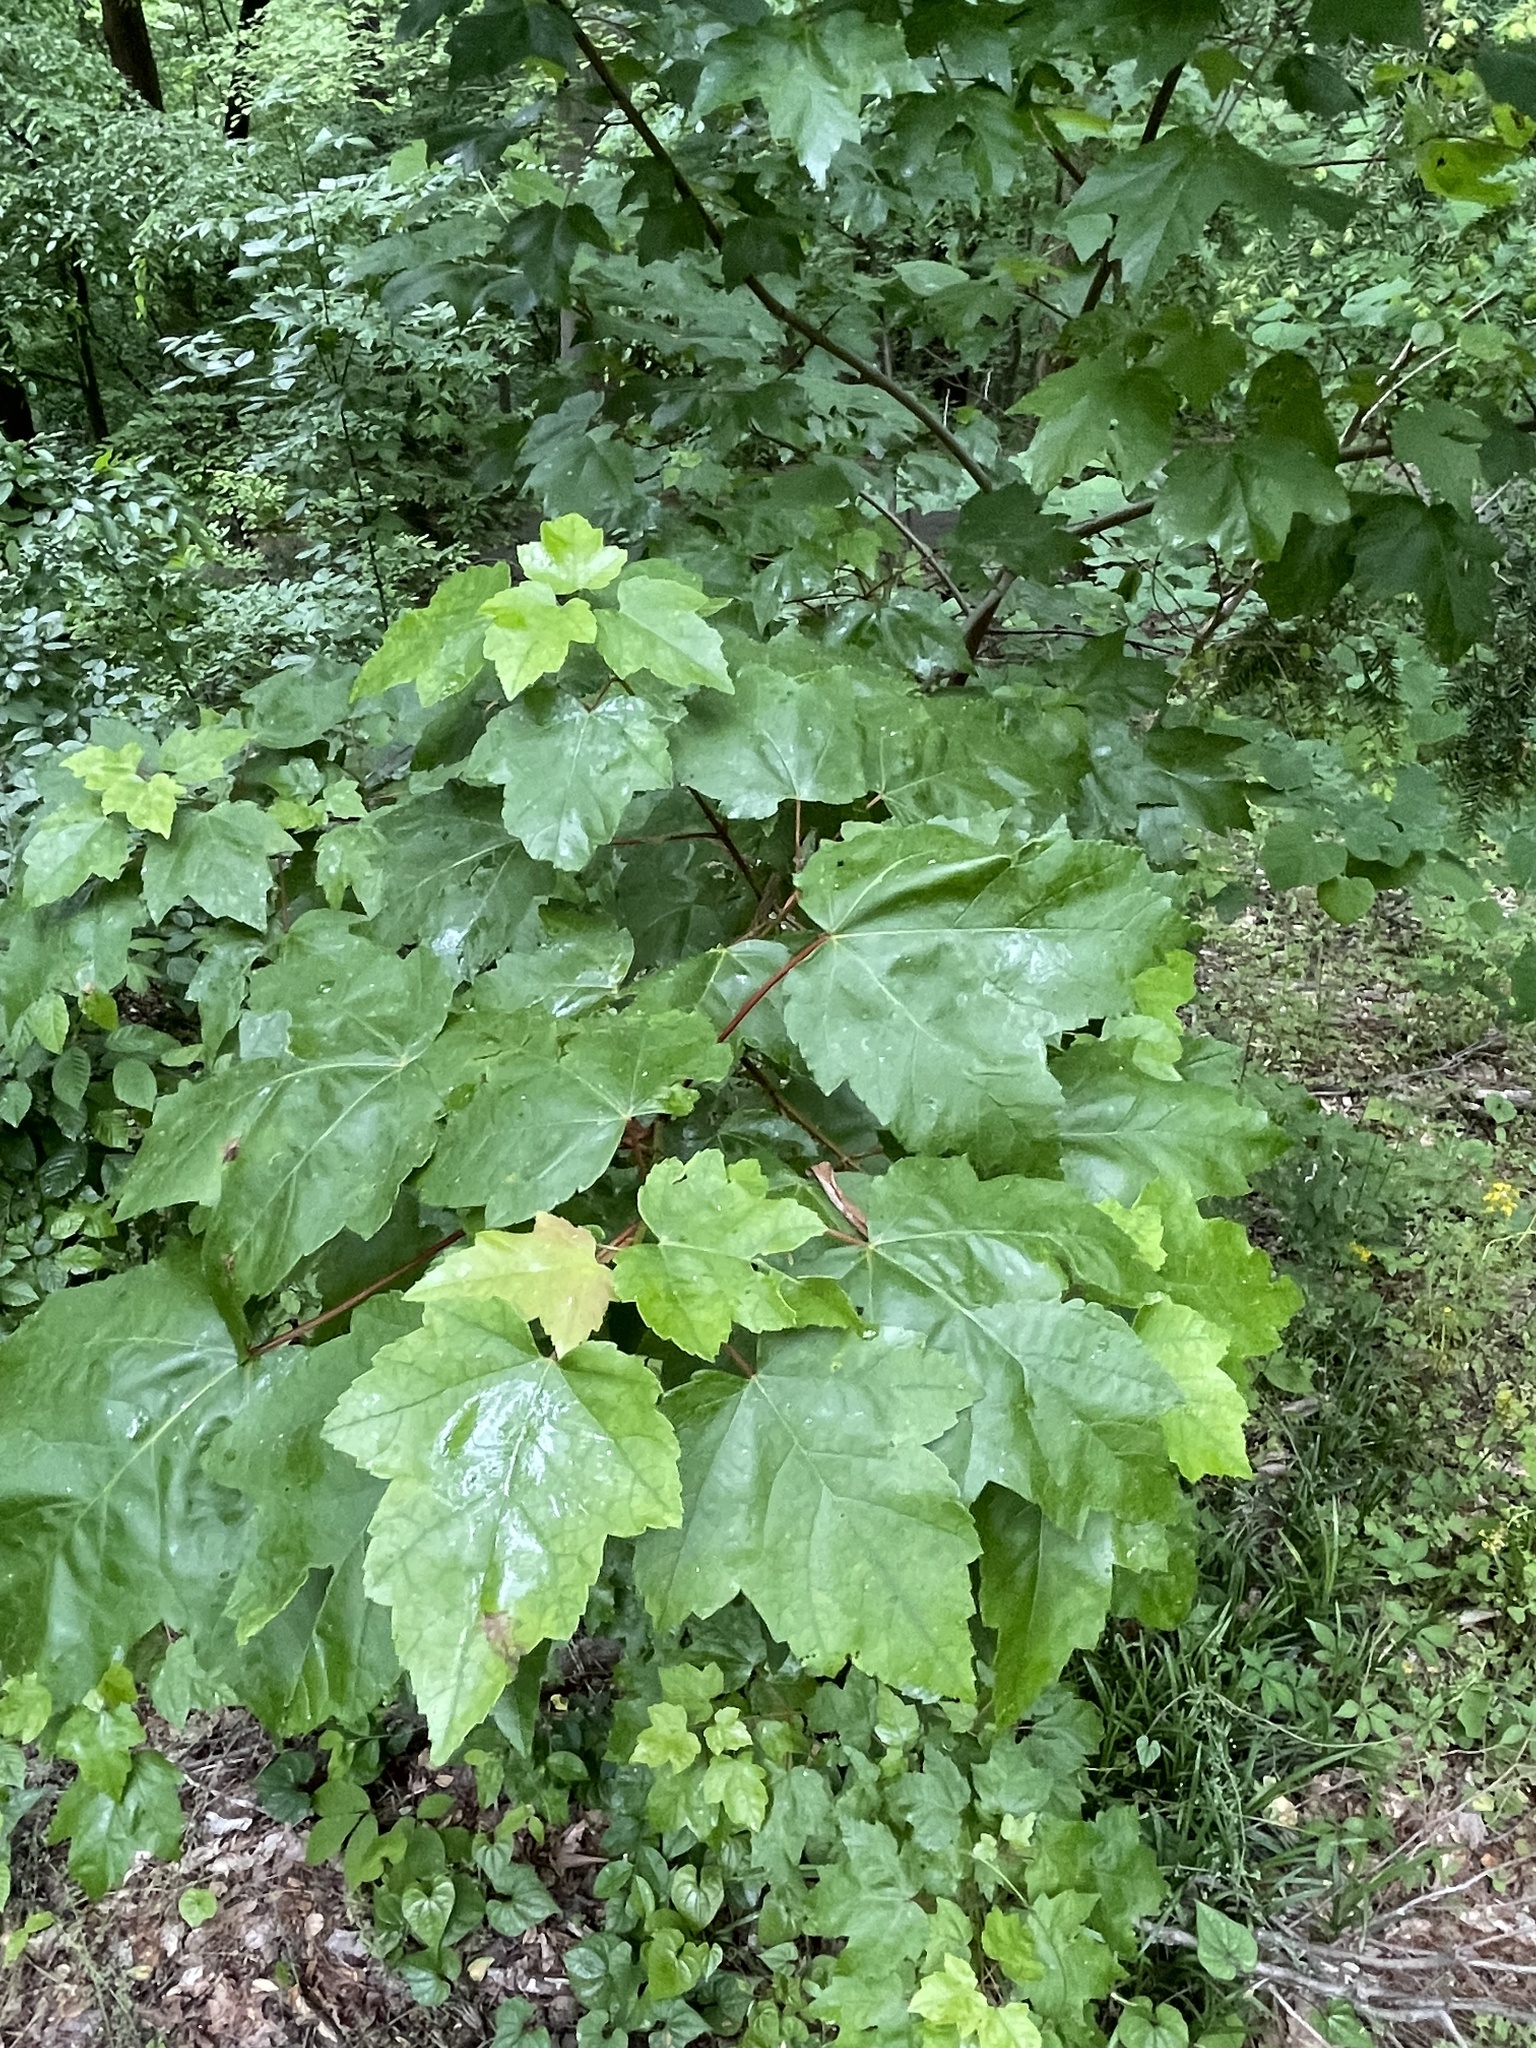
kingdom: Plantae
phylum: Tracheophyta
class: Magnoliopsida
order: Sapindales
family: Sapindaceae
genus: Acer
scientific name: Acer rubrum
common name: Red maple
